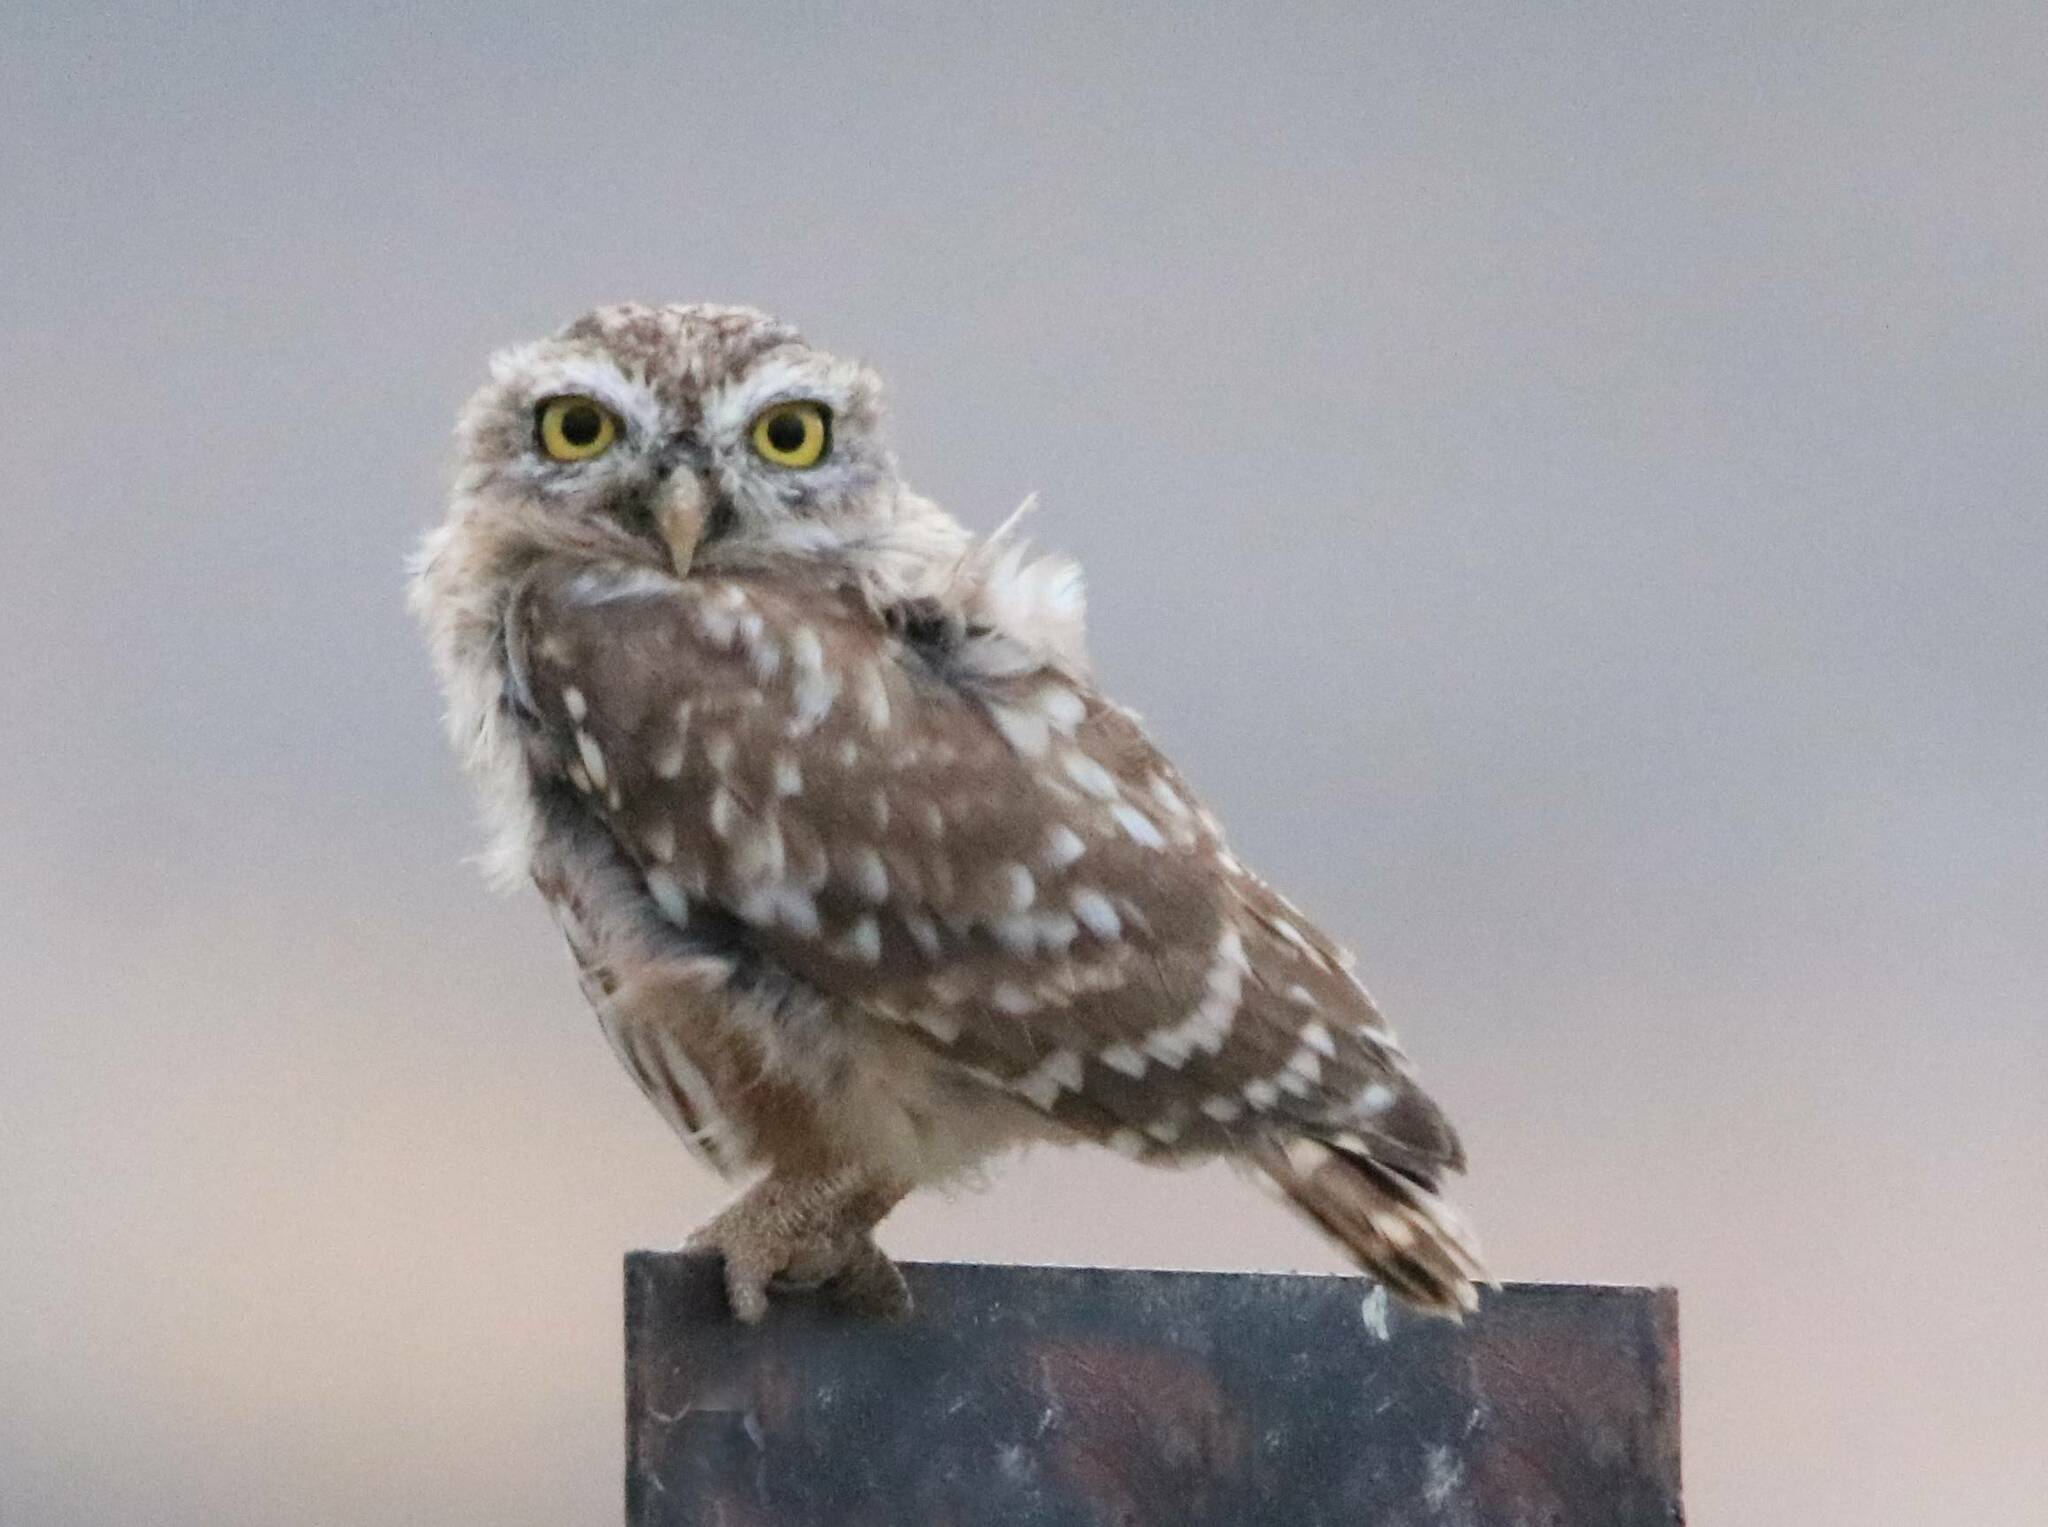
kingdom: Animalia
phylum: Chordata
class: Aves
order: Strigiformes
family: Strigidae
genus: Athene
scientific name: Athene noctua
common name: Little owl
